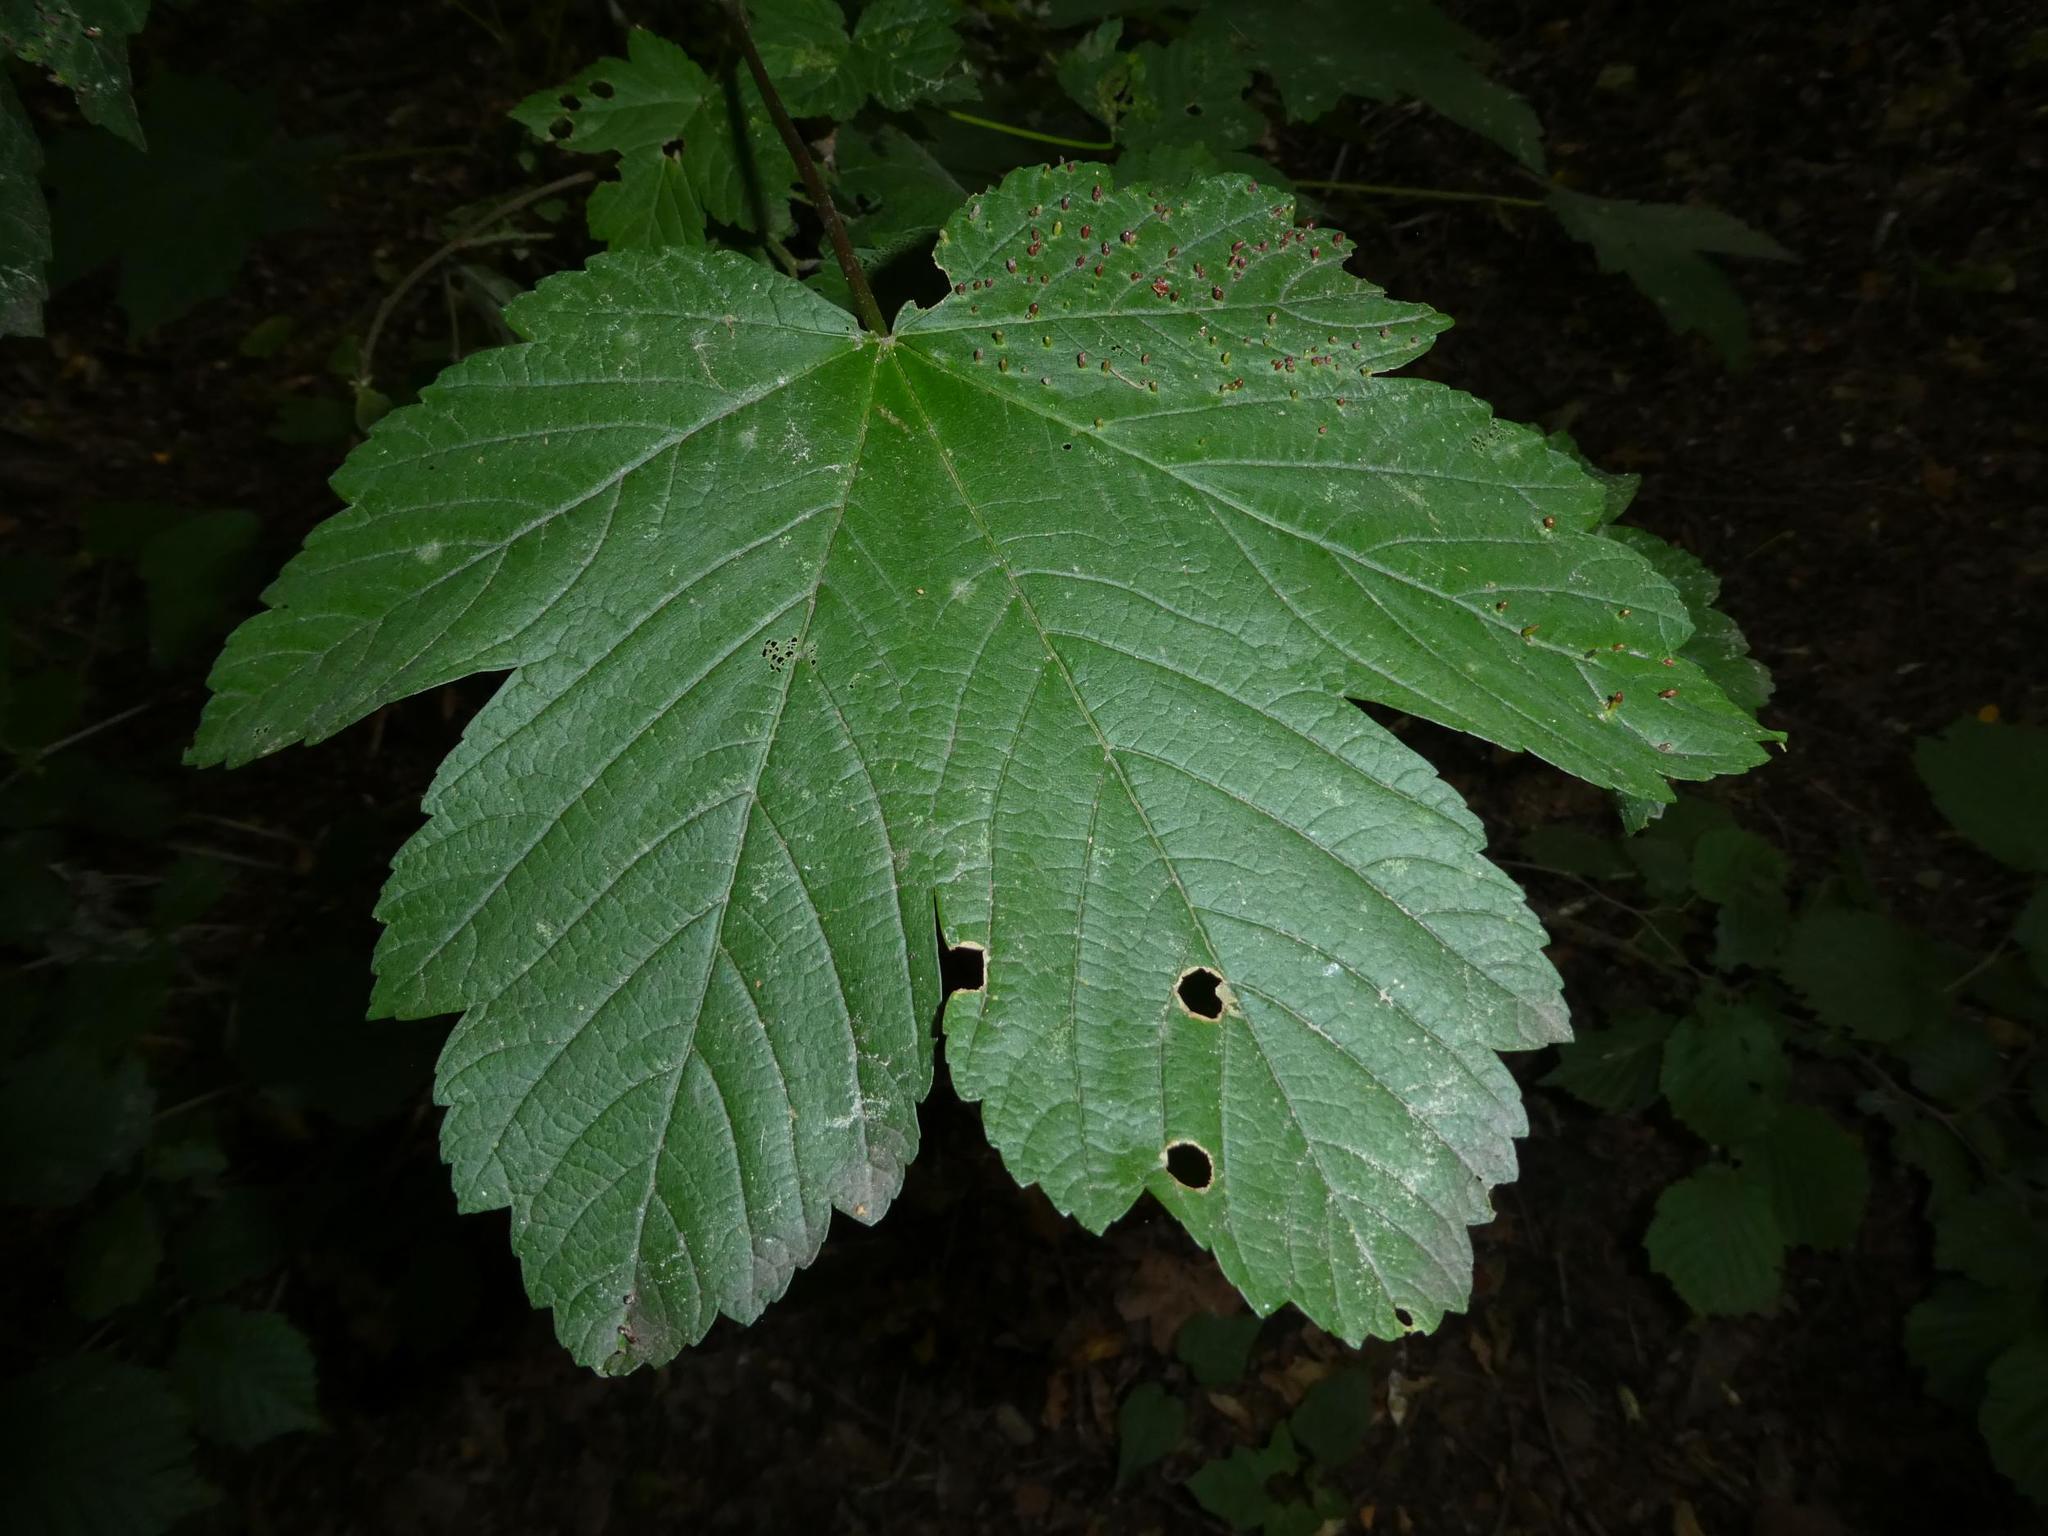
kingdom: Plantae
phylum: Tracheophyta
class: Magnoliopsida
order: Sapindales
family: Sapindaceae
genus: Acer
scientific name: Acer pseudoplatanus
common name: Sycamore
